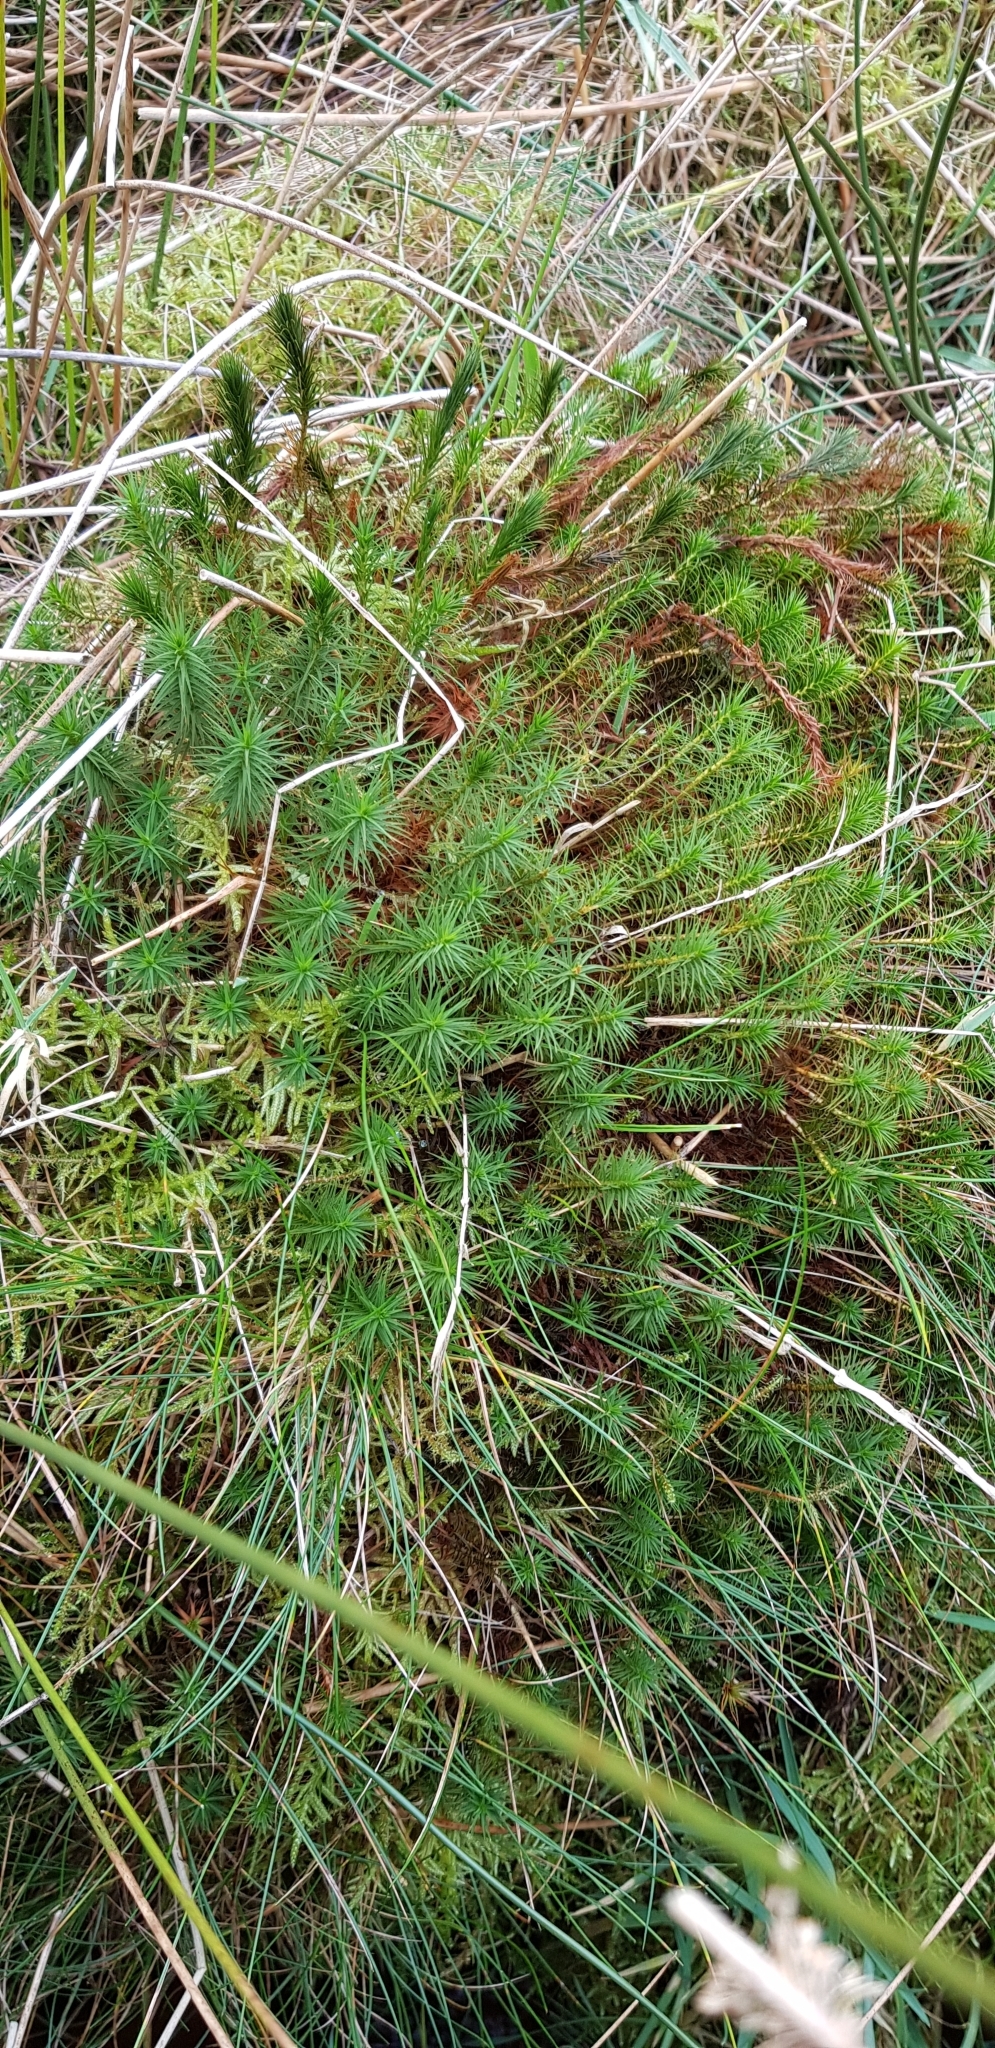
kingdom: Plantae
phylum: Bryophyta
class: Polytrichopsida
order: Polytrichales
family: Polytrichaceae
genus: Polytrichum
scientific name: Polytrichum commune
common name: Common haircap
